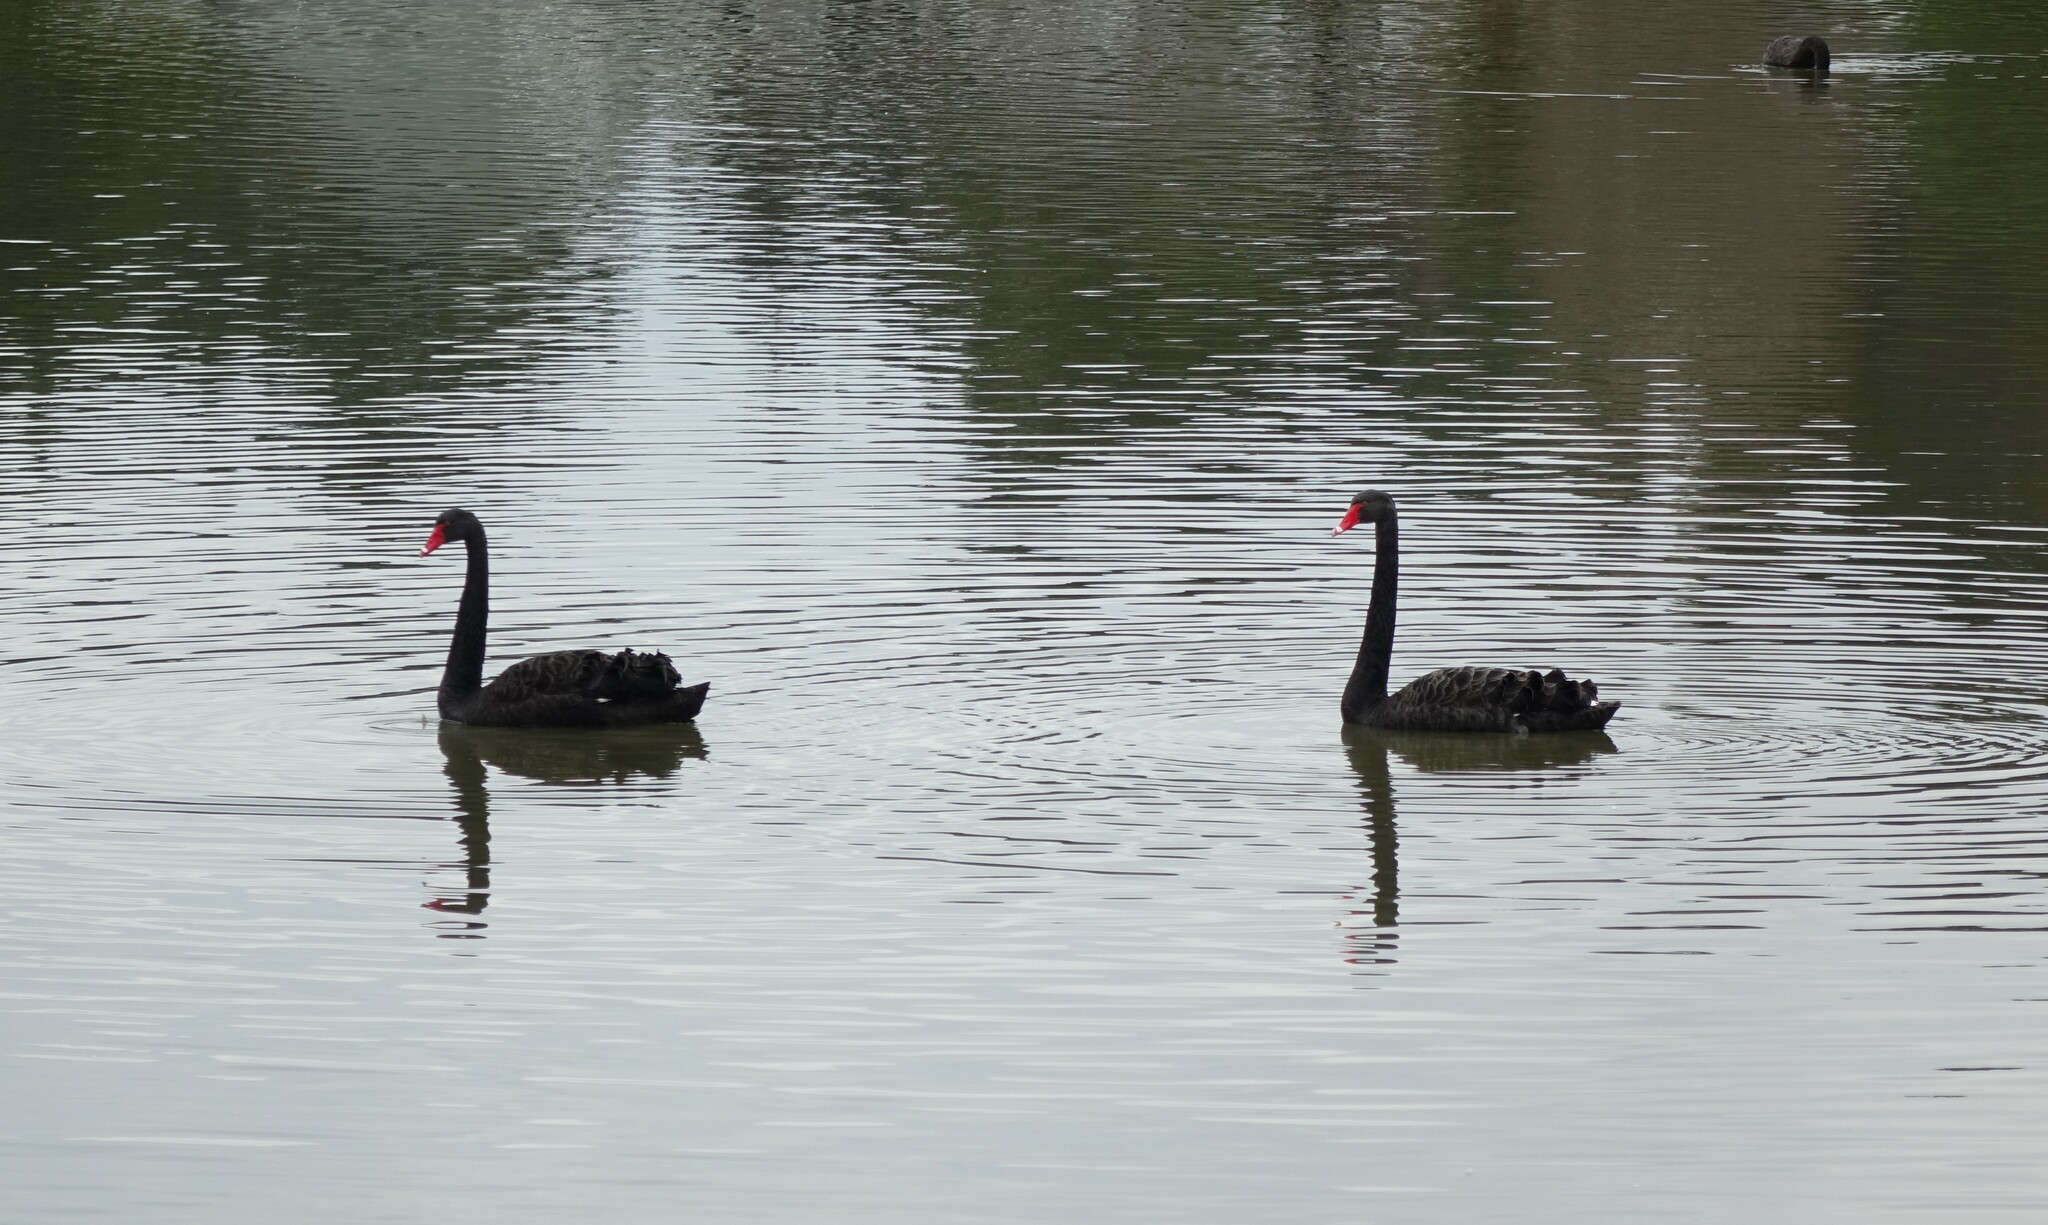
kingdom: Animalia
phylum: Chordata
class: Aves
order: Anseriformes
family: Anatidae
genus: Cygnus
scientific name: Cygnus atratus
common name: Black swan
